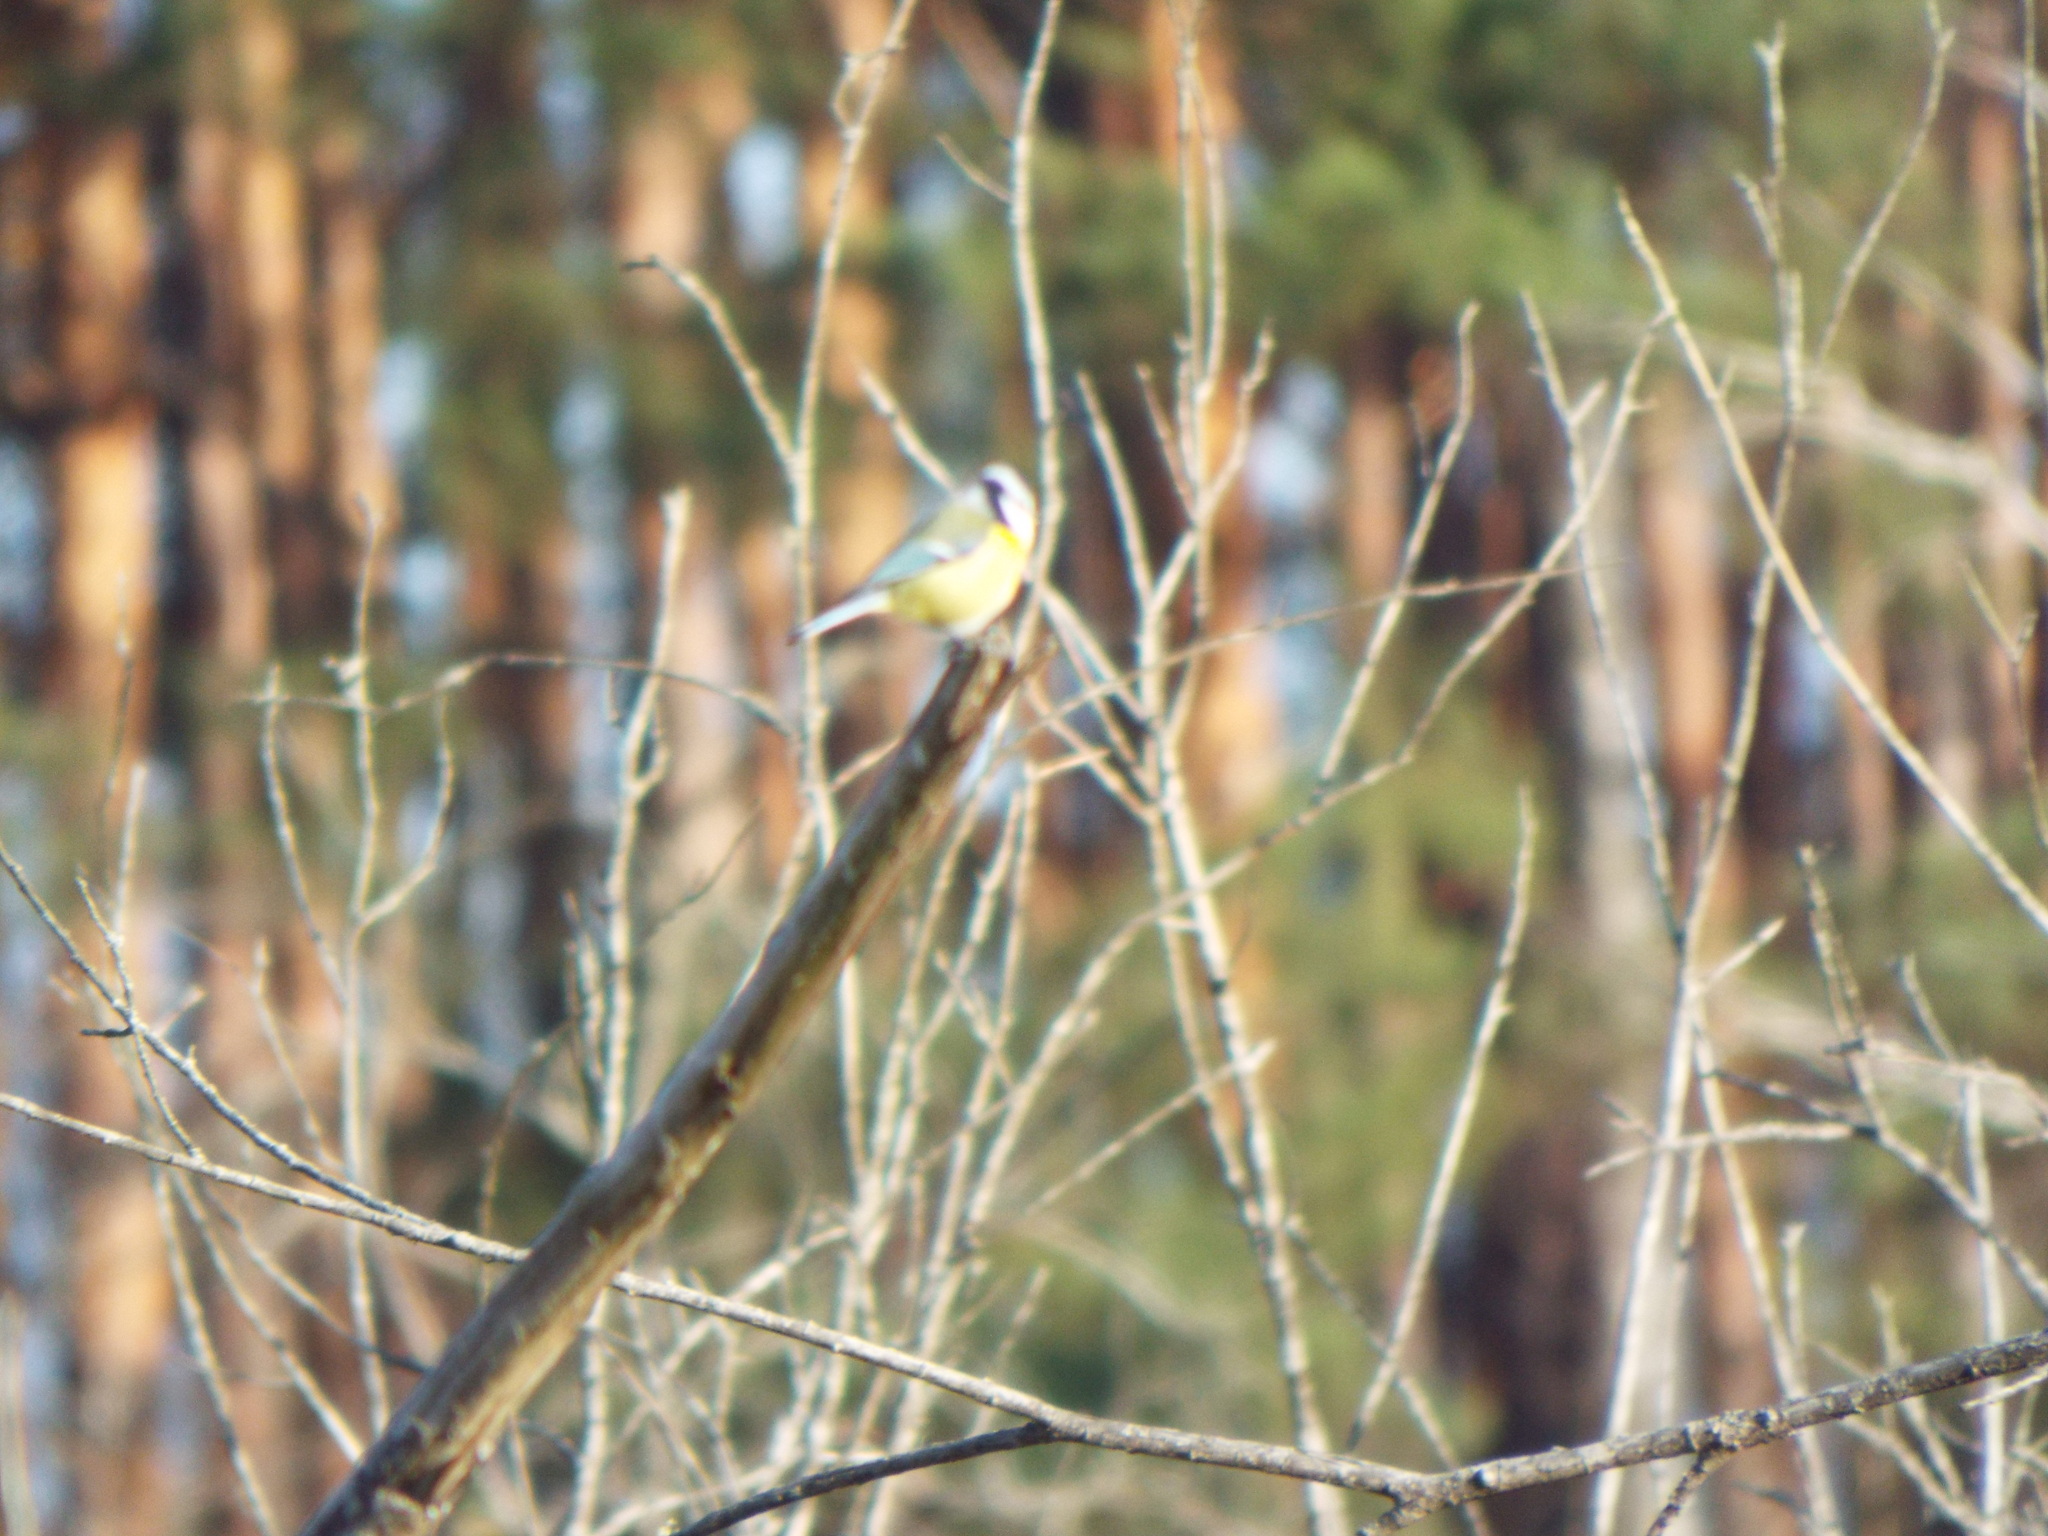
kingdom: Animalia
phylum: Chordata
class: Aves
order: Passeriformes
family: Paridae
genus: Cyanistes
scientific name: Cyanistes caeruleus
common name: Eurasian blue tit
